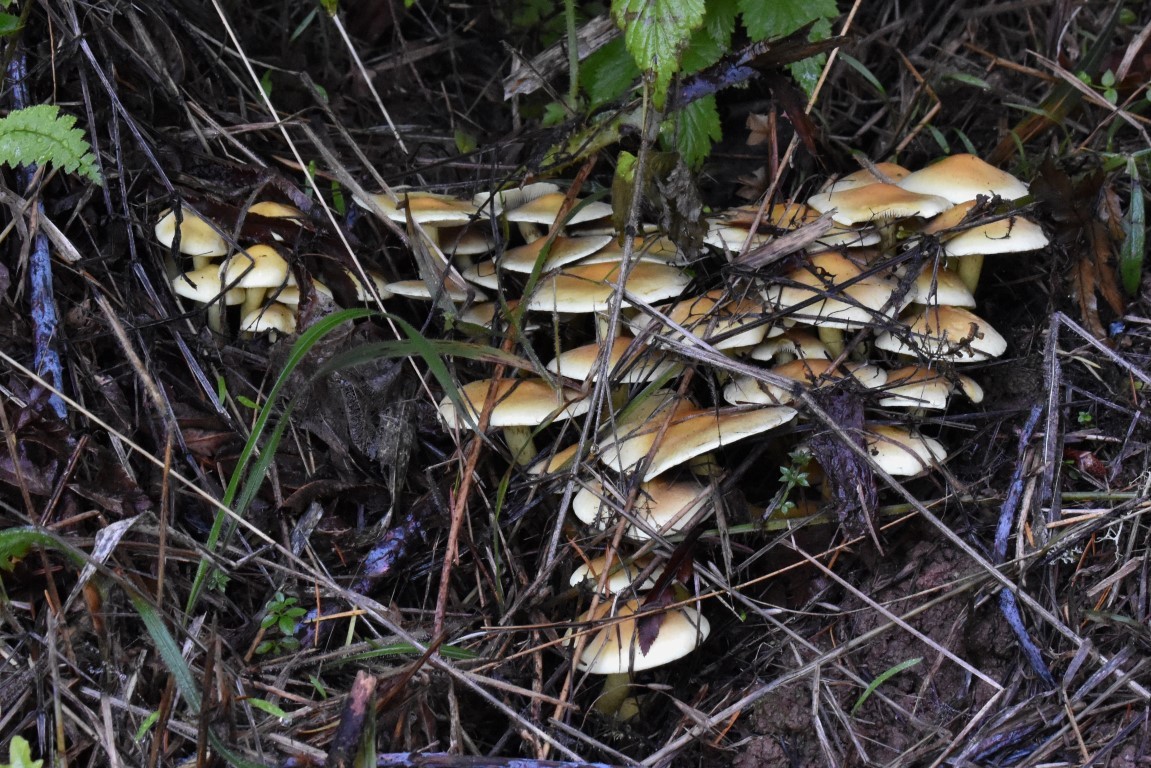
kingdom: Fungi
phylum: Basidiomycota
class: Agaricomycetes
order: Agaricales
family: Strophariaceae
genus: Hypholoma
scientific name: Hypholoma fasciculare
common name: Sulphur tuft
